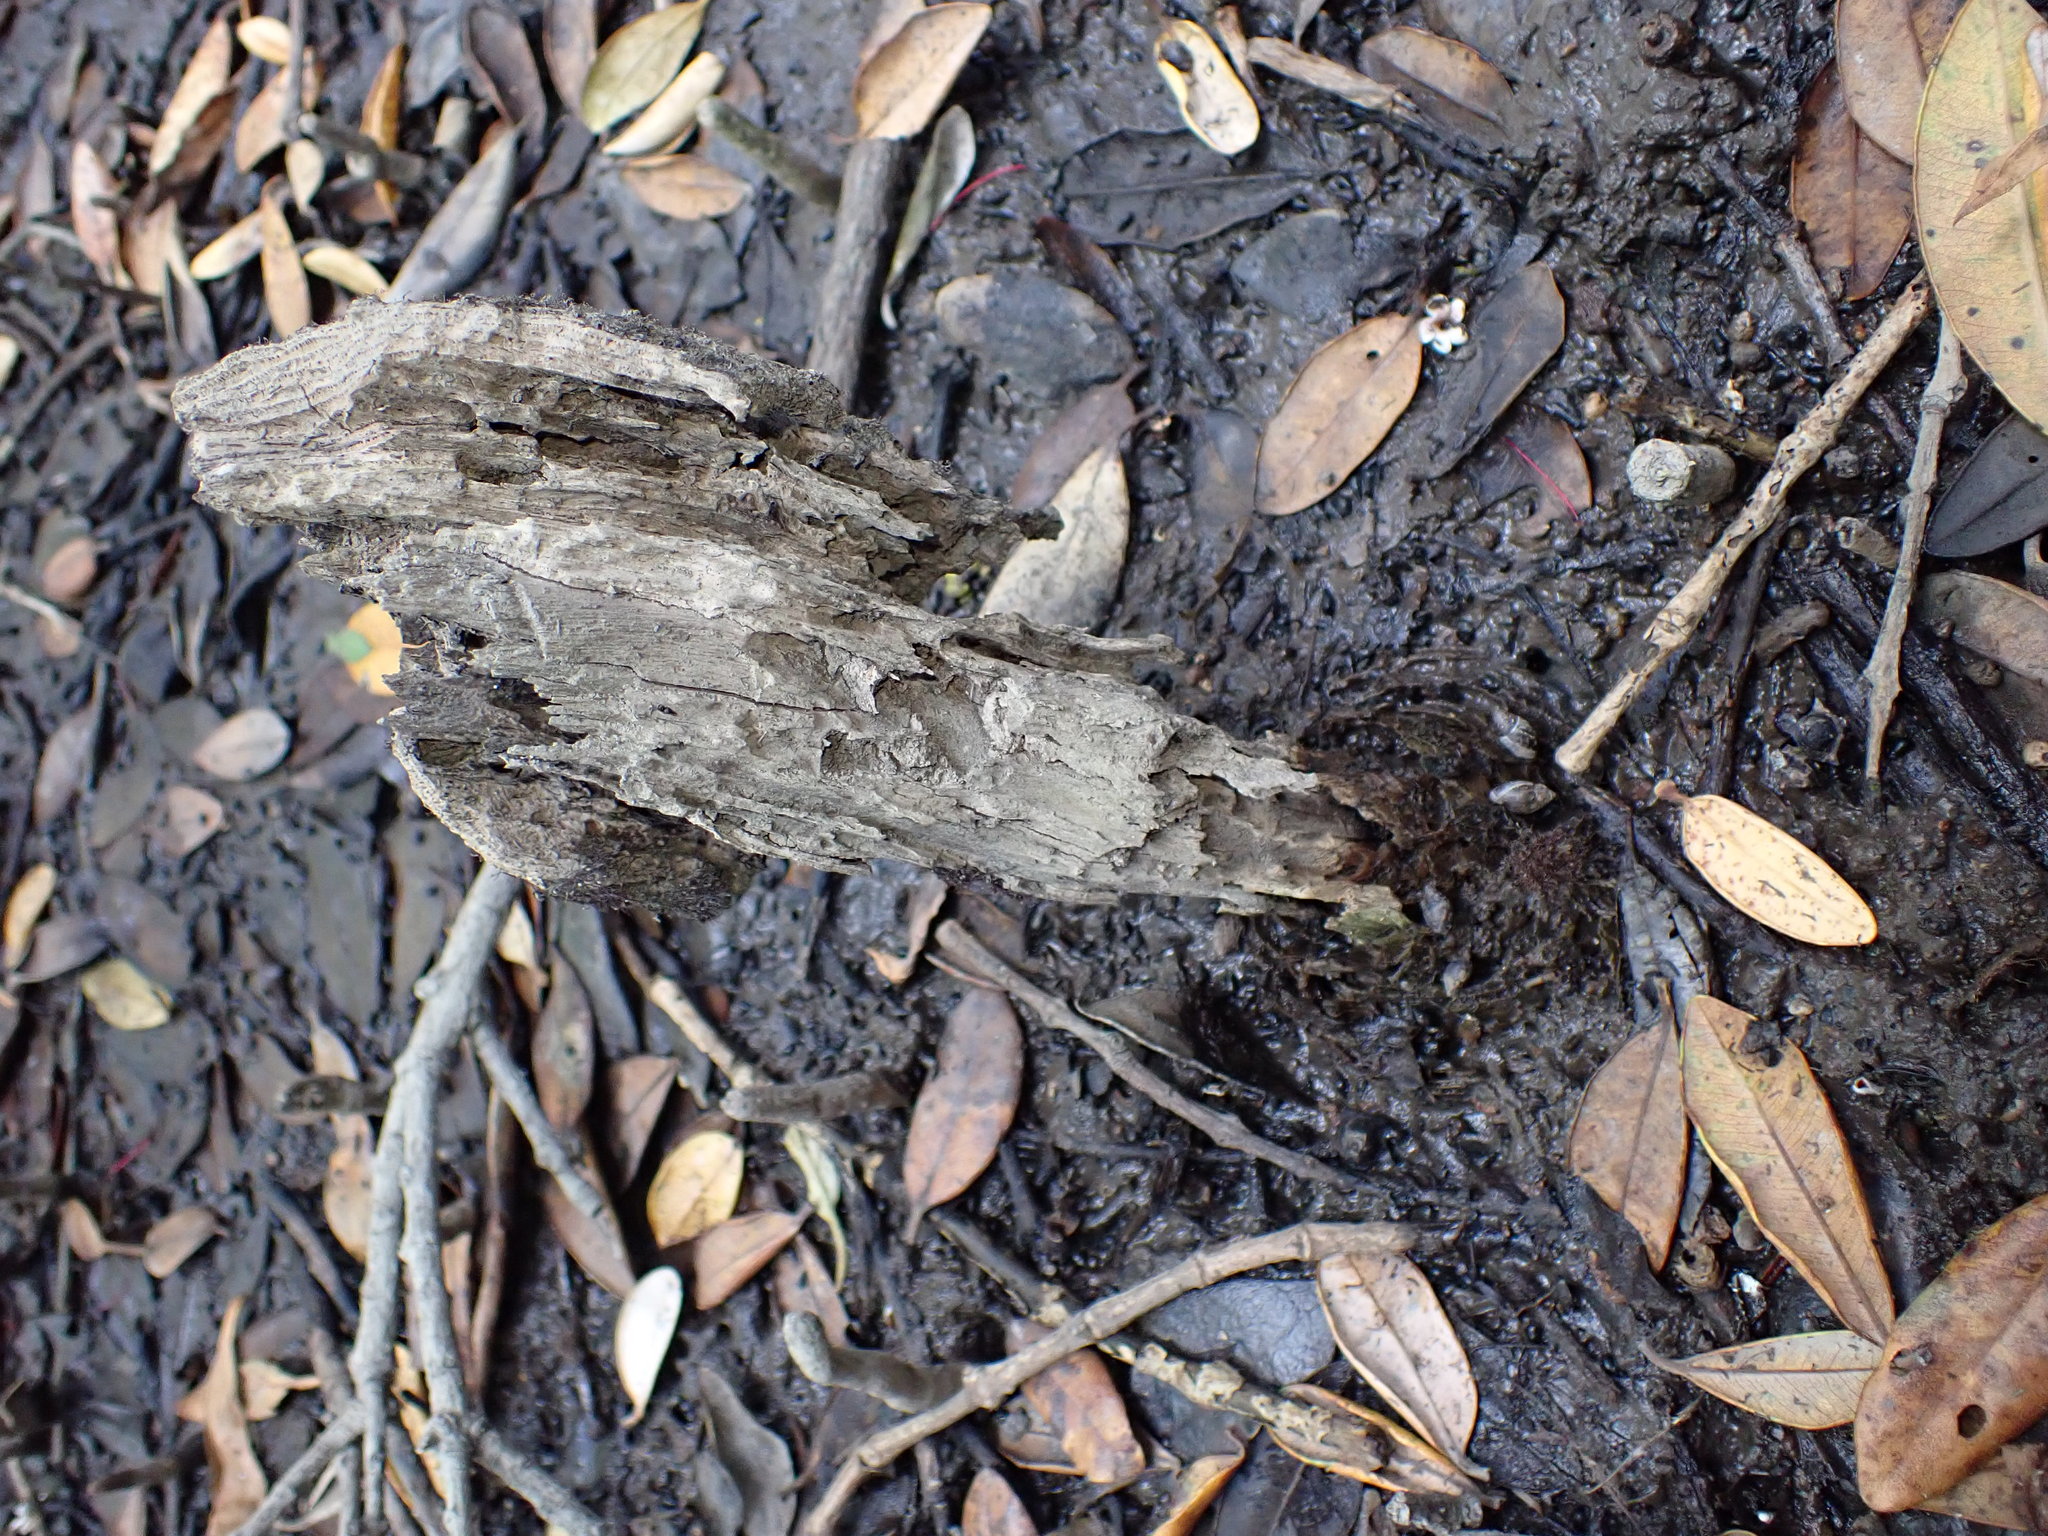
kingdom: Animalia
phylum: Mollusca
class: Gastropoda
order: Ellobiida
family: Ellobiidae
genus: Pleuroloba
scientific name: Pleuroloba costellaris
